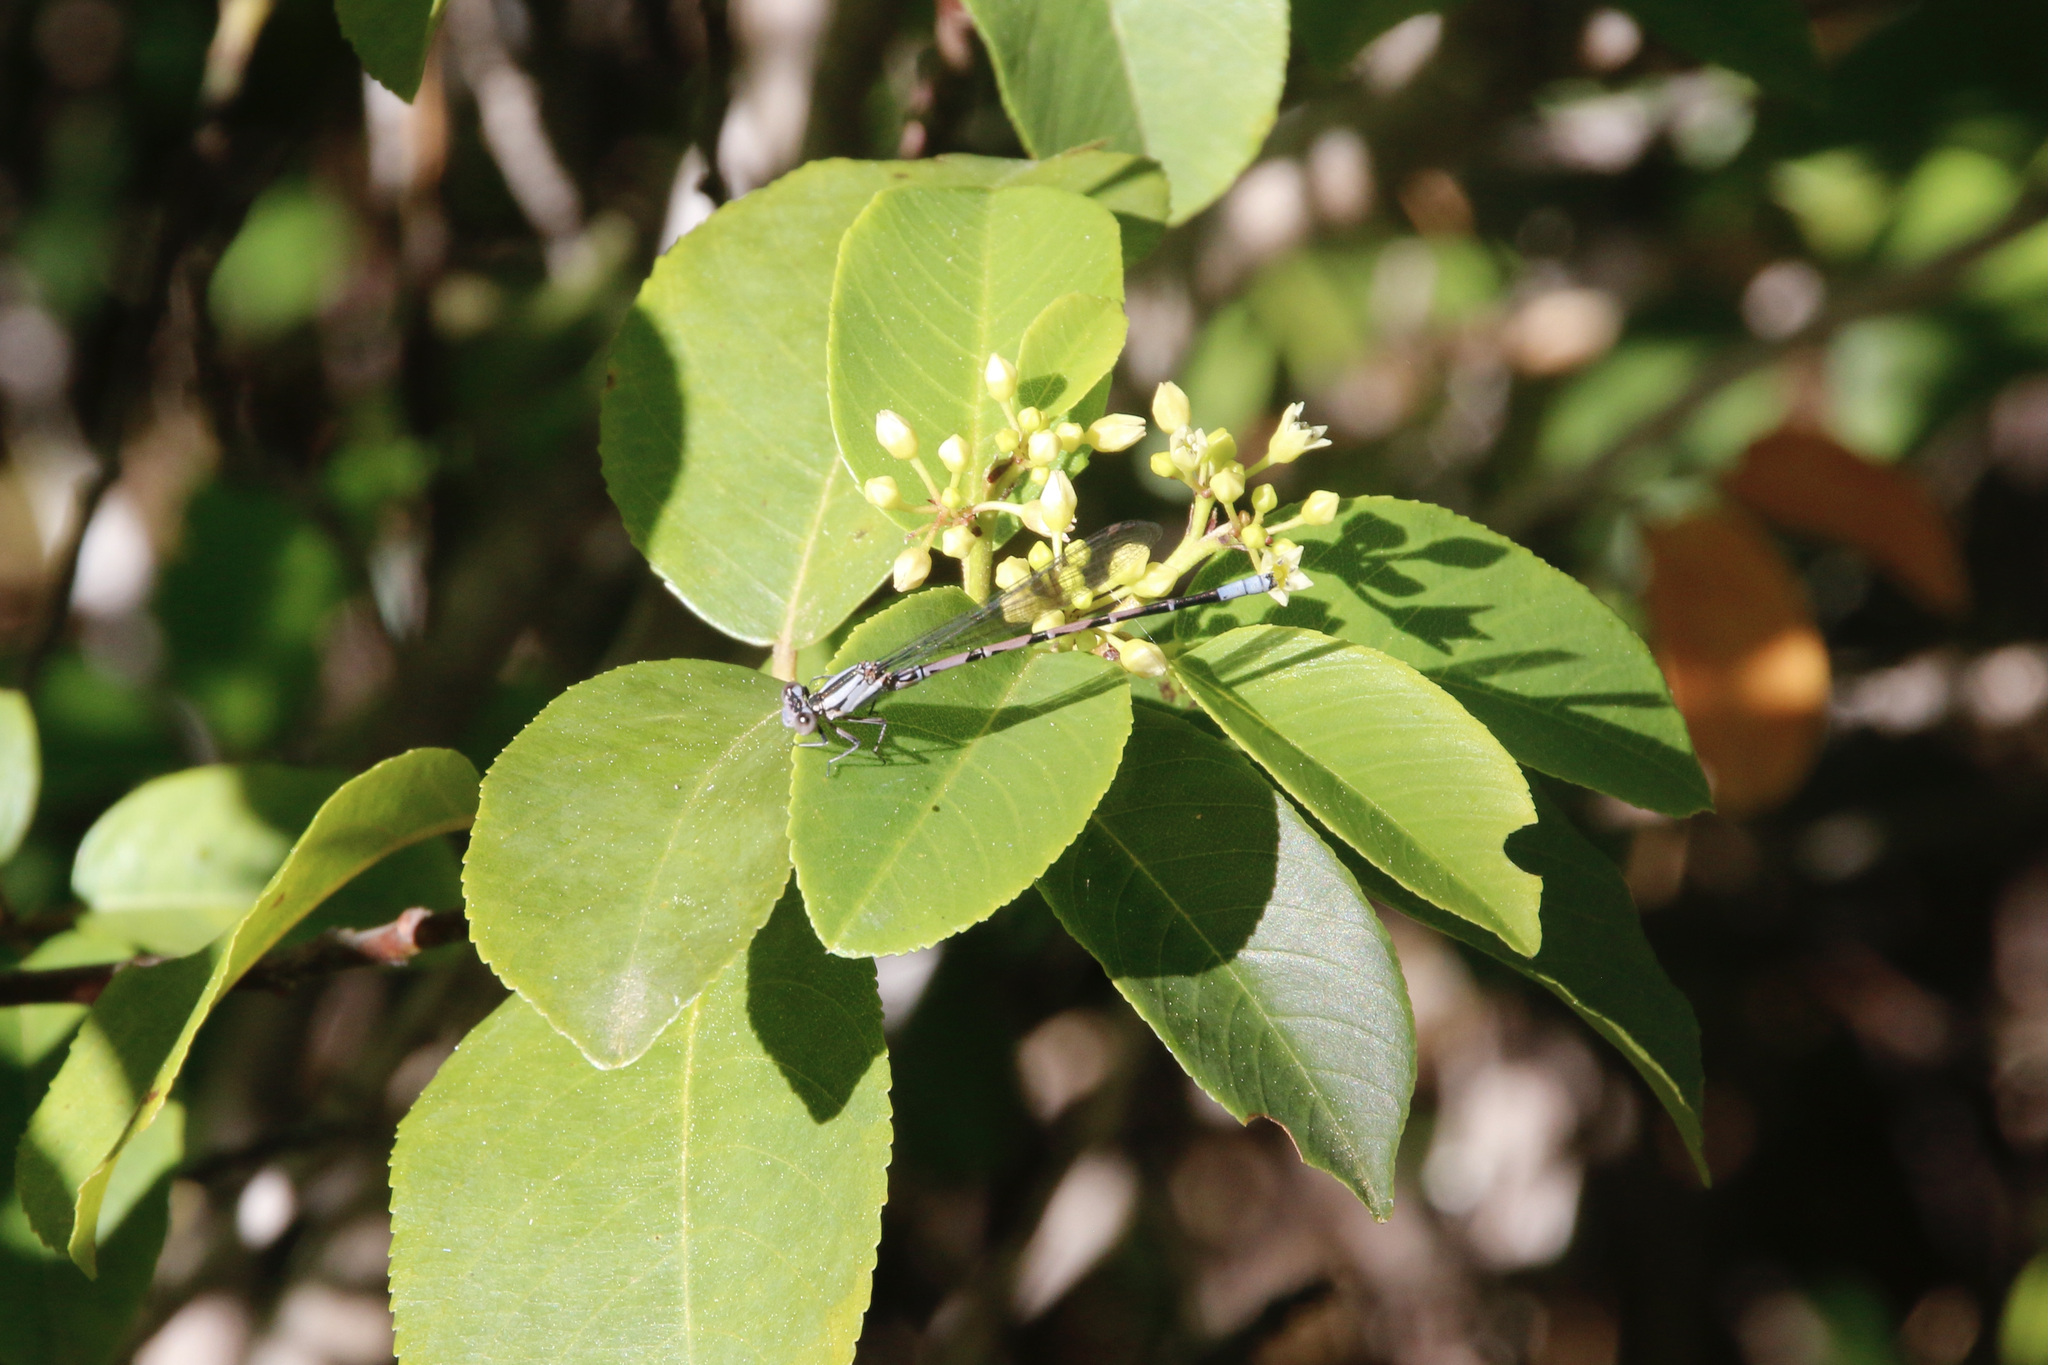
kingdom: Animalia
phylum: Arthropoda
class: Insecta
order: Odonata
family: Coenagrionidae
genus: Argia
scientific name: Argia vivida
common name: Vivid dancer
